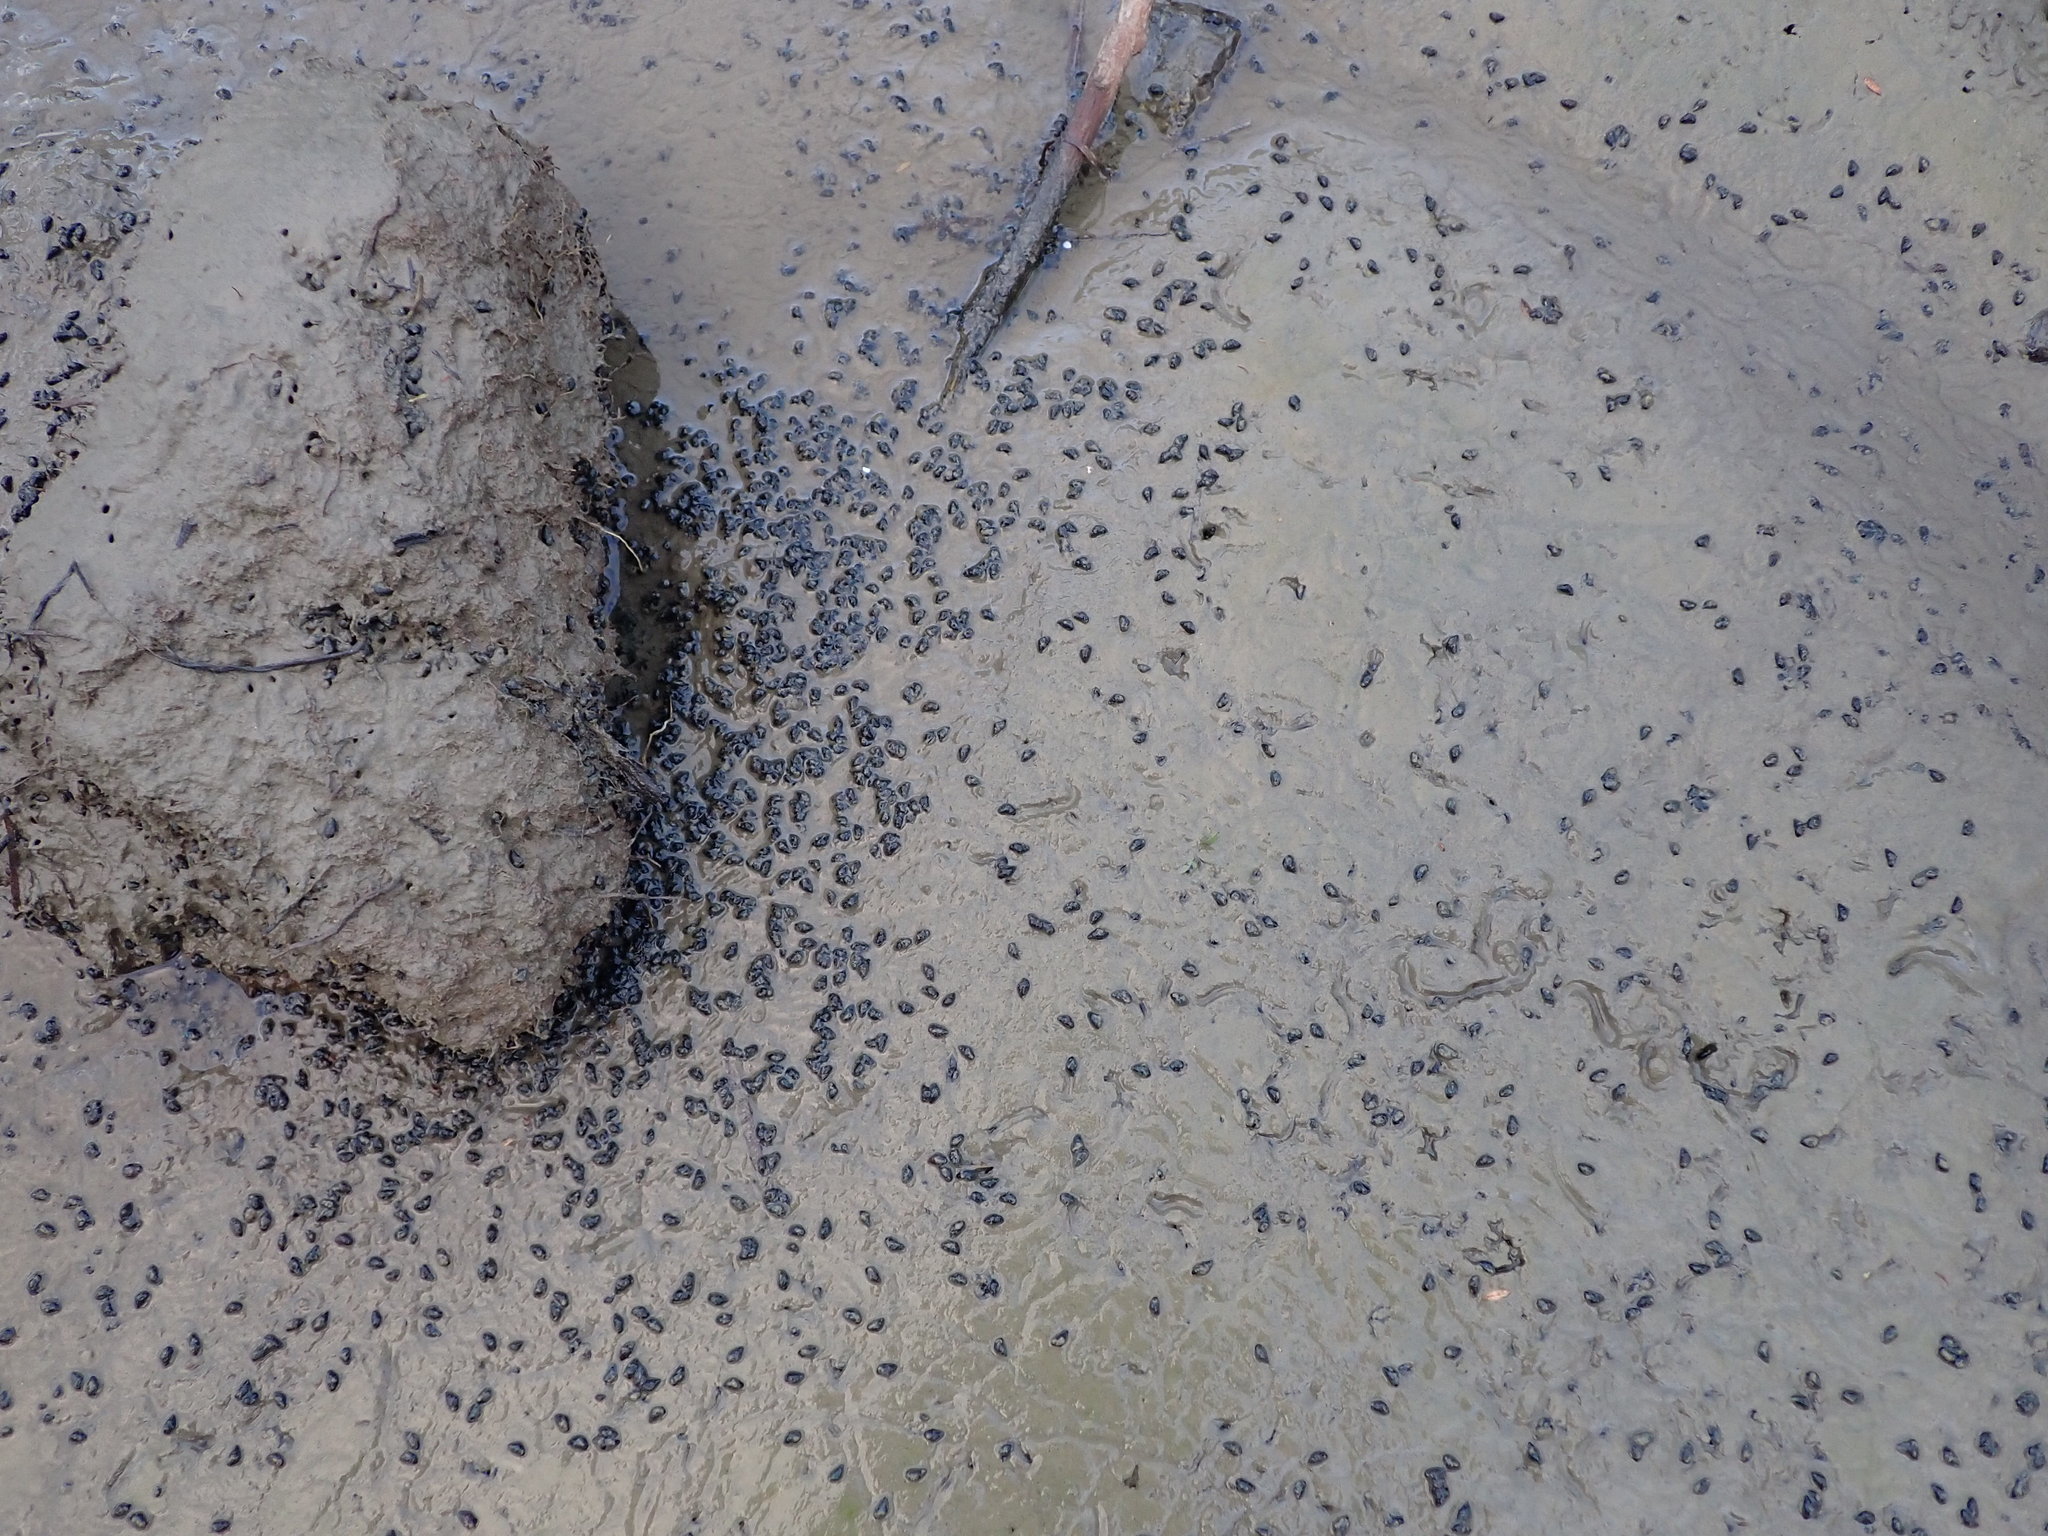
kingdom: Animalia
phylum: Mollusca
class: Gastropoda
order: Littorinimorpha
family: Tateidae
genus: Potamopyrgus
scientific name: Potamopyrgus estuarinus
